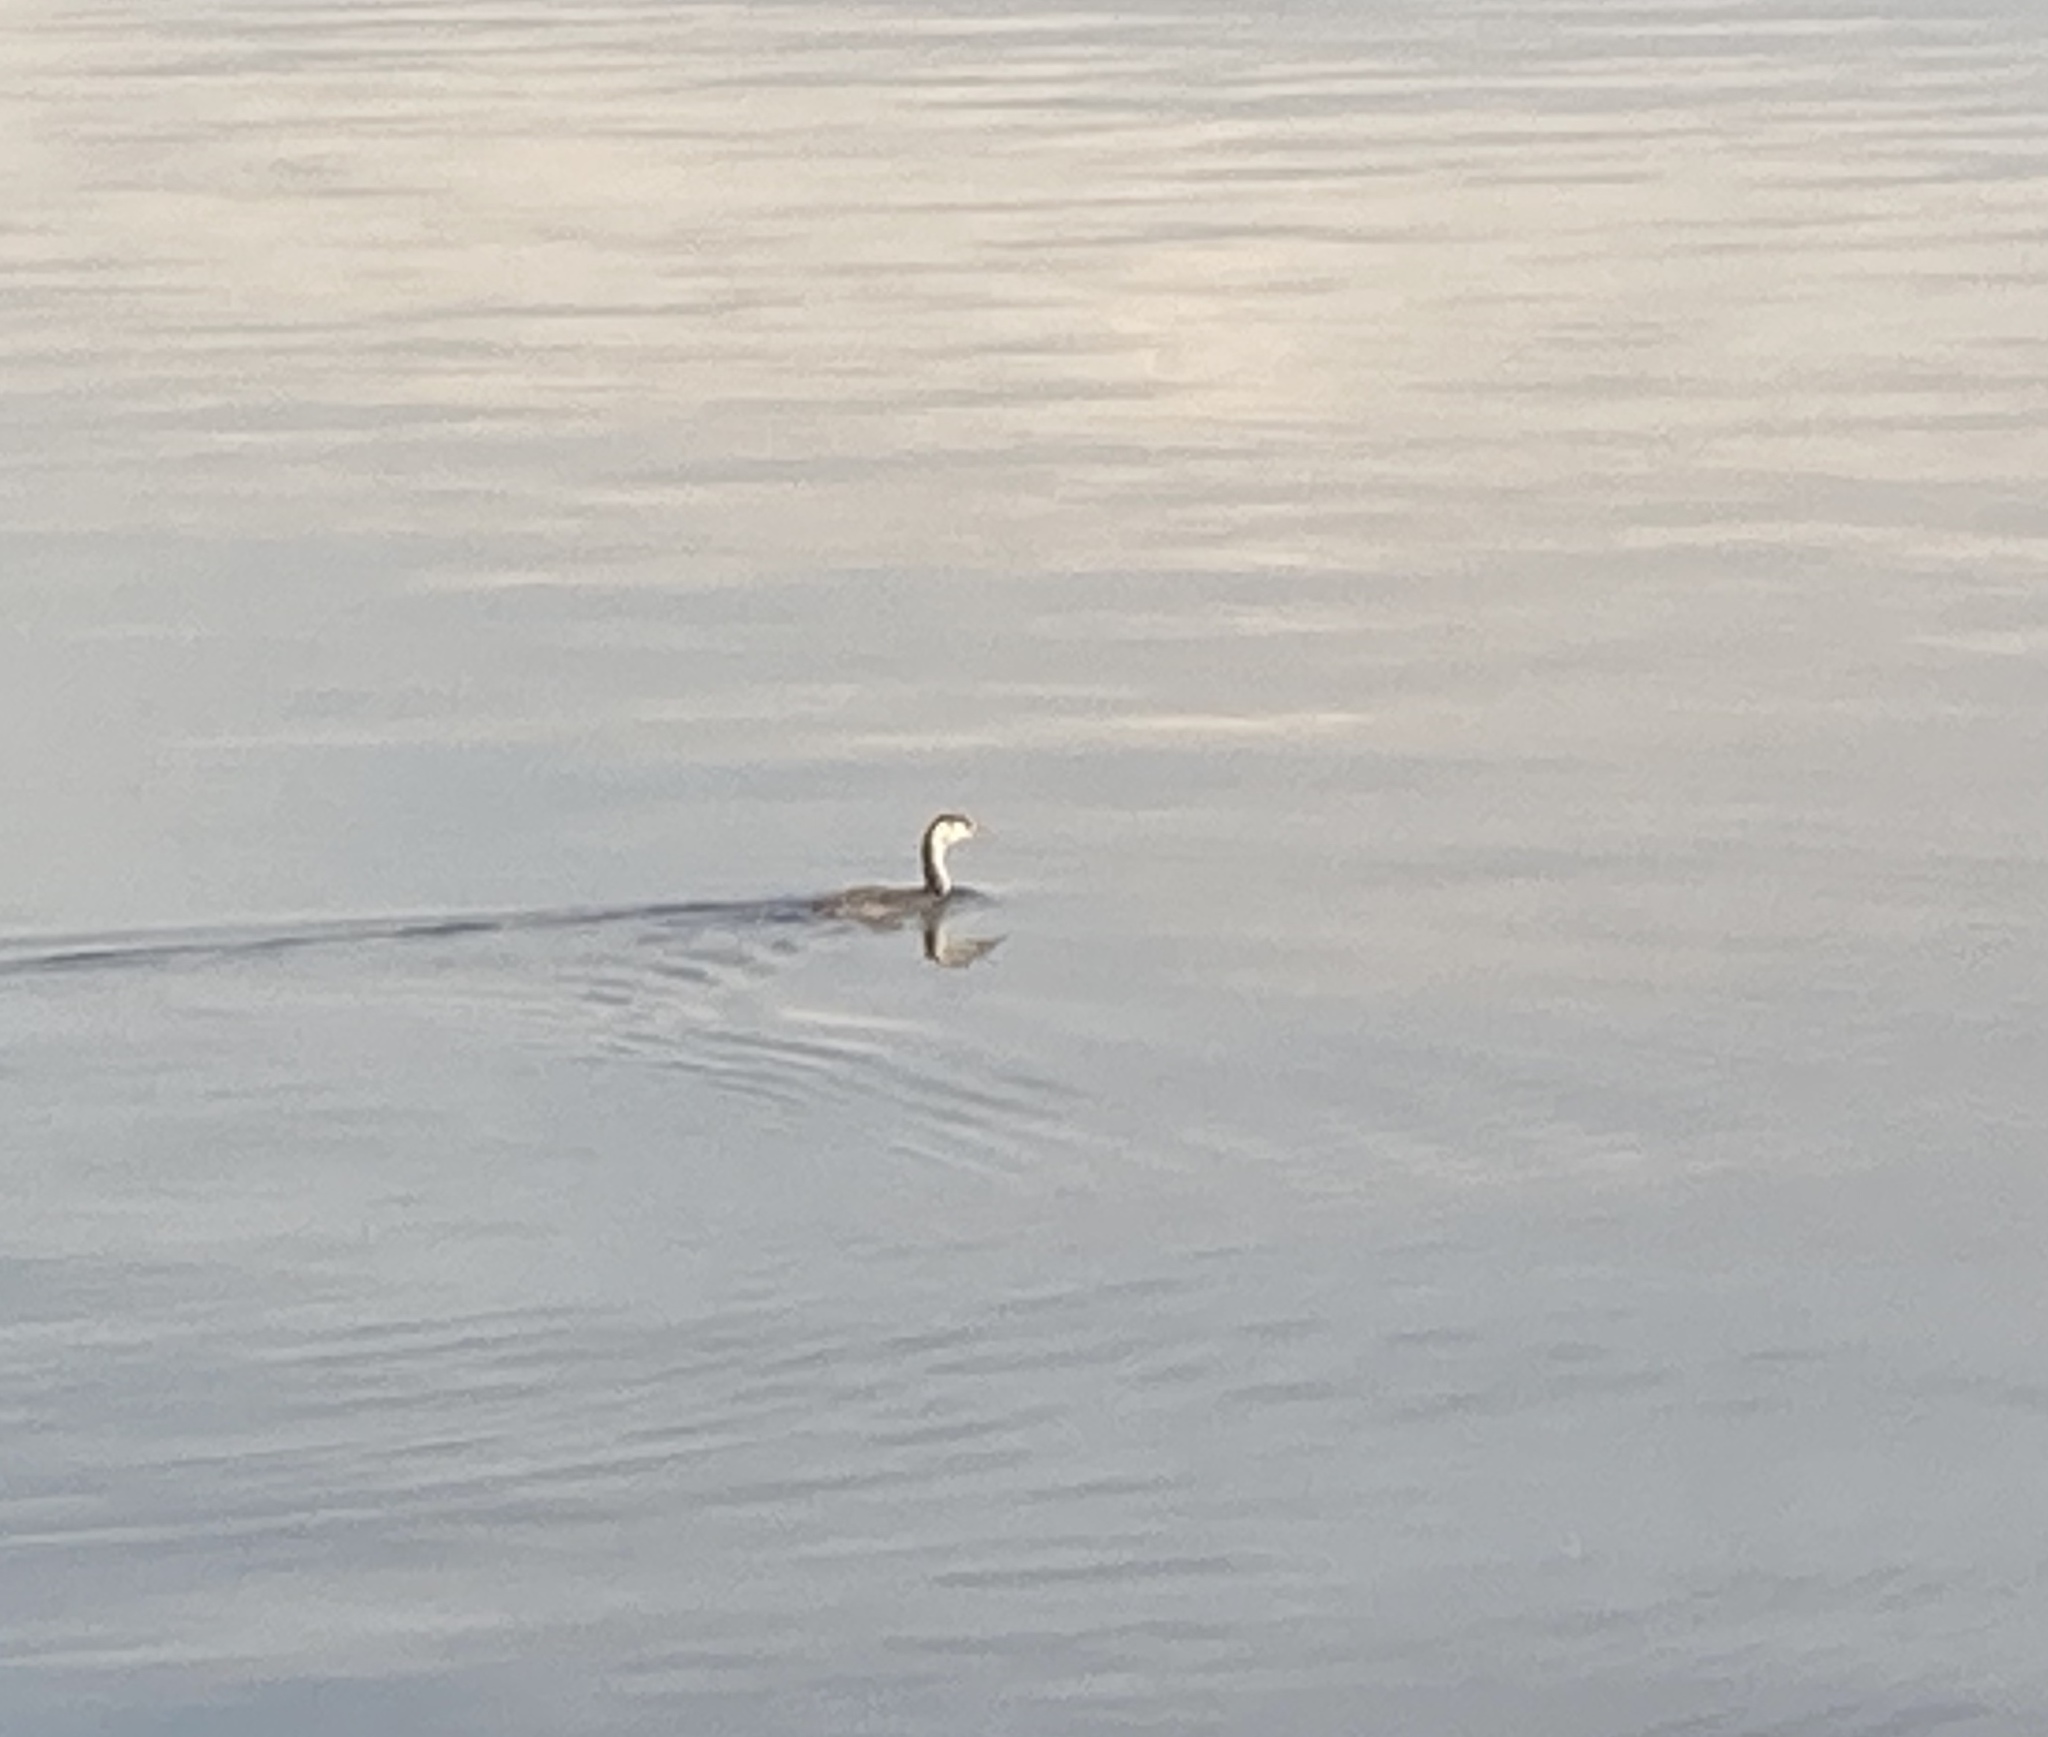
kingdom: Animalia
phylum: Chordata
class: Aves
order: Podicipediformes
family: Podicipedidae
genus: Podiceps
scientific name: Podiceps cristatus
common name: Great crested grebe
